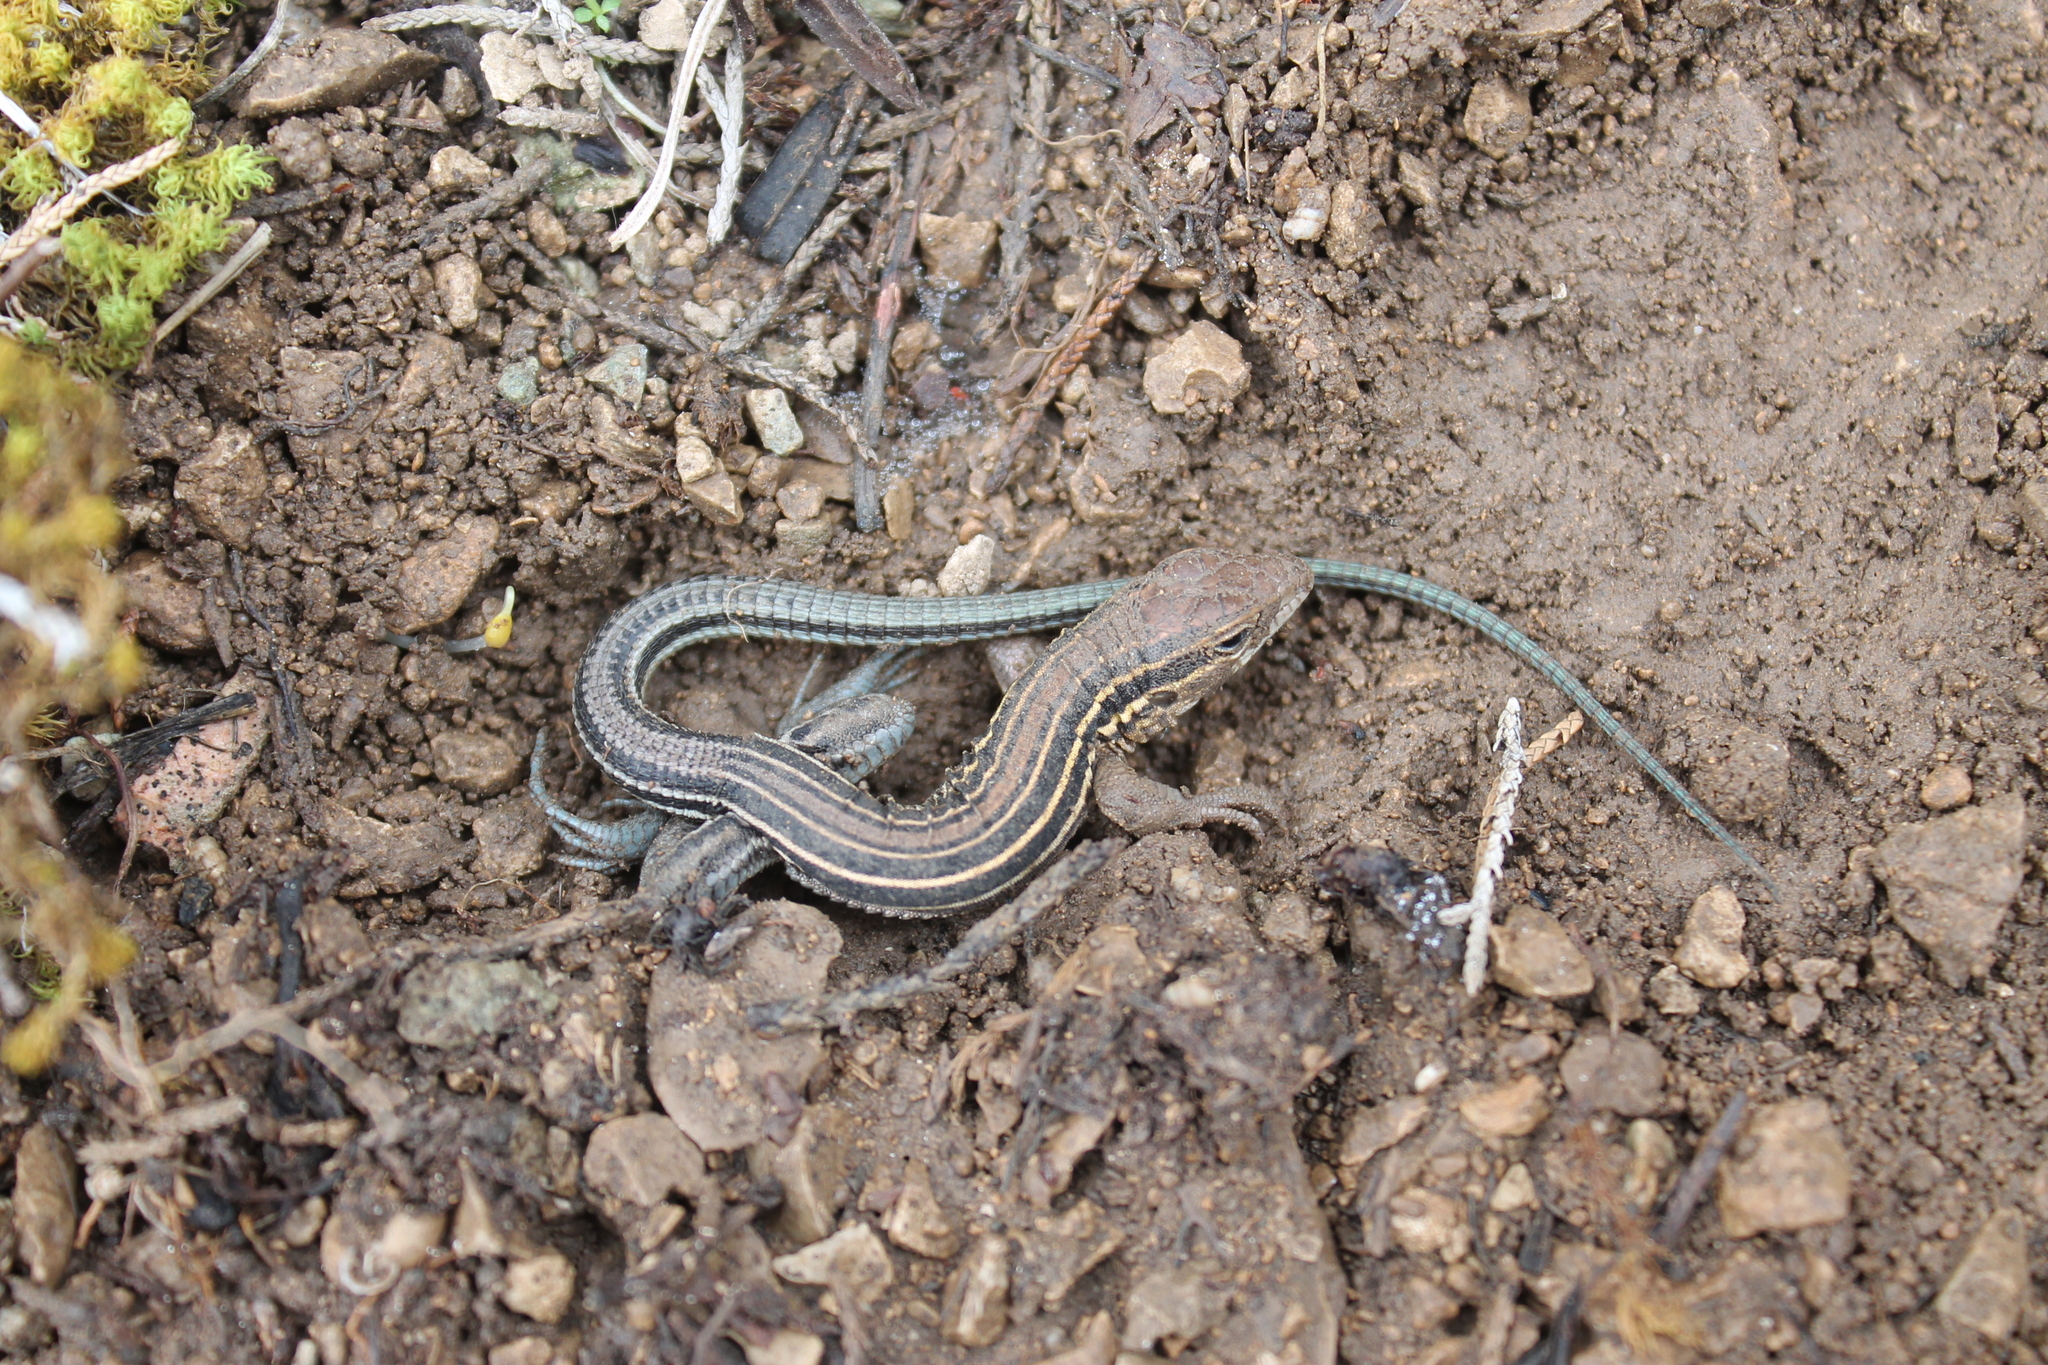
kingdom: Animalia
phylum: Chordata
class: Squamata
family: Teiidae
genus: Aspidoscelis
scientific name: Aspidoscelis sexlineatus
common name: Six-lined racerunner
